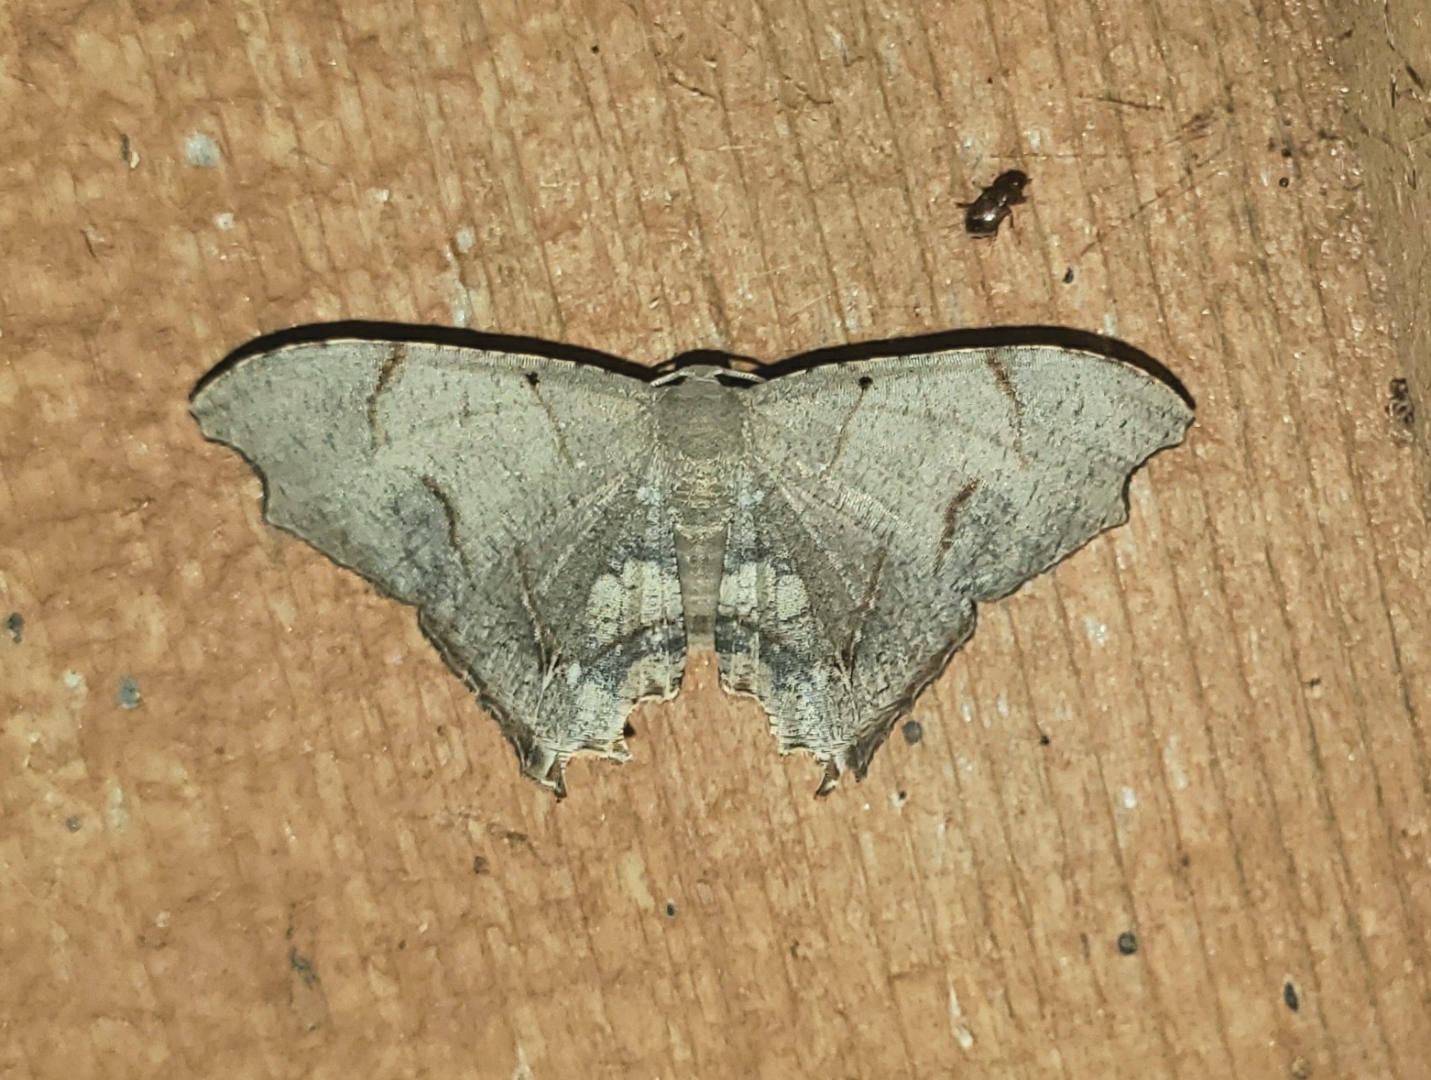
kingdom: Animalia
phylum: Arthropoda
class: Insecta
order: Lepidoptera
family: Uraniidae
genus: Trotorhombia
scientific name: Trotorhombia metachromata
